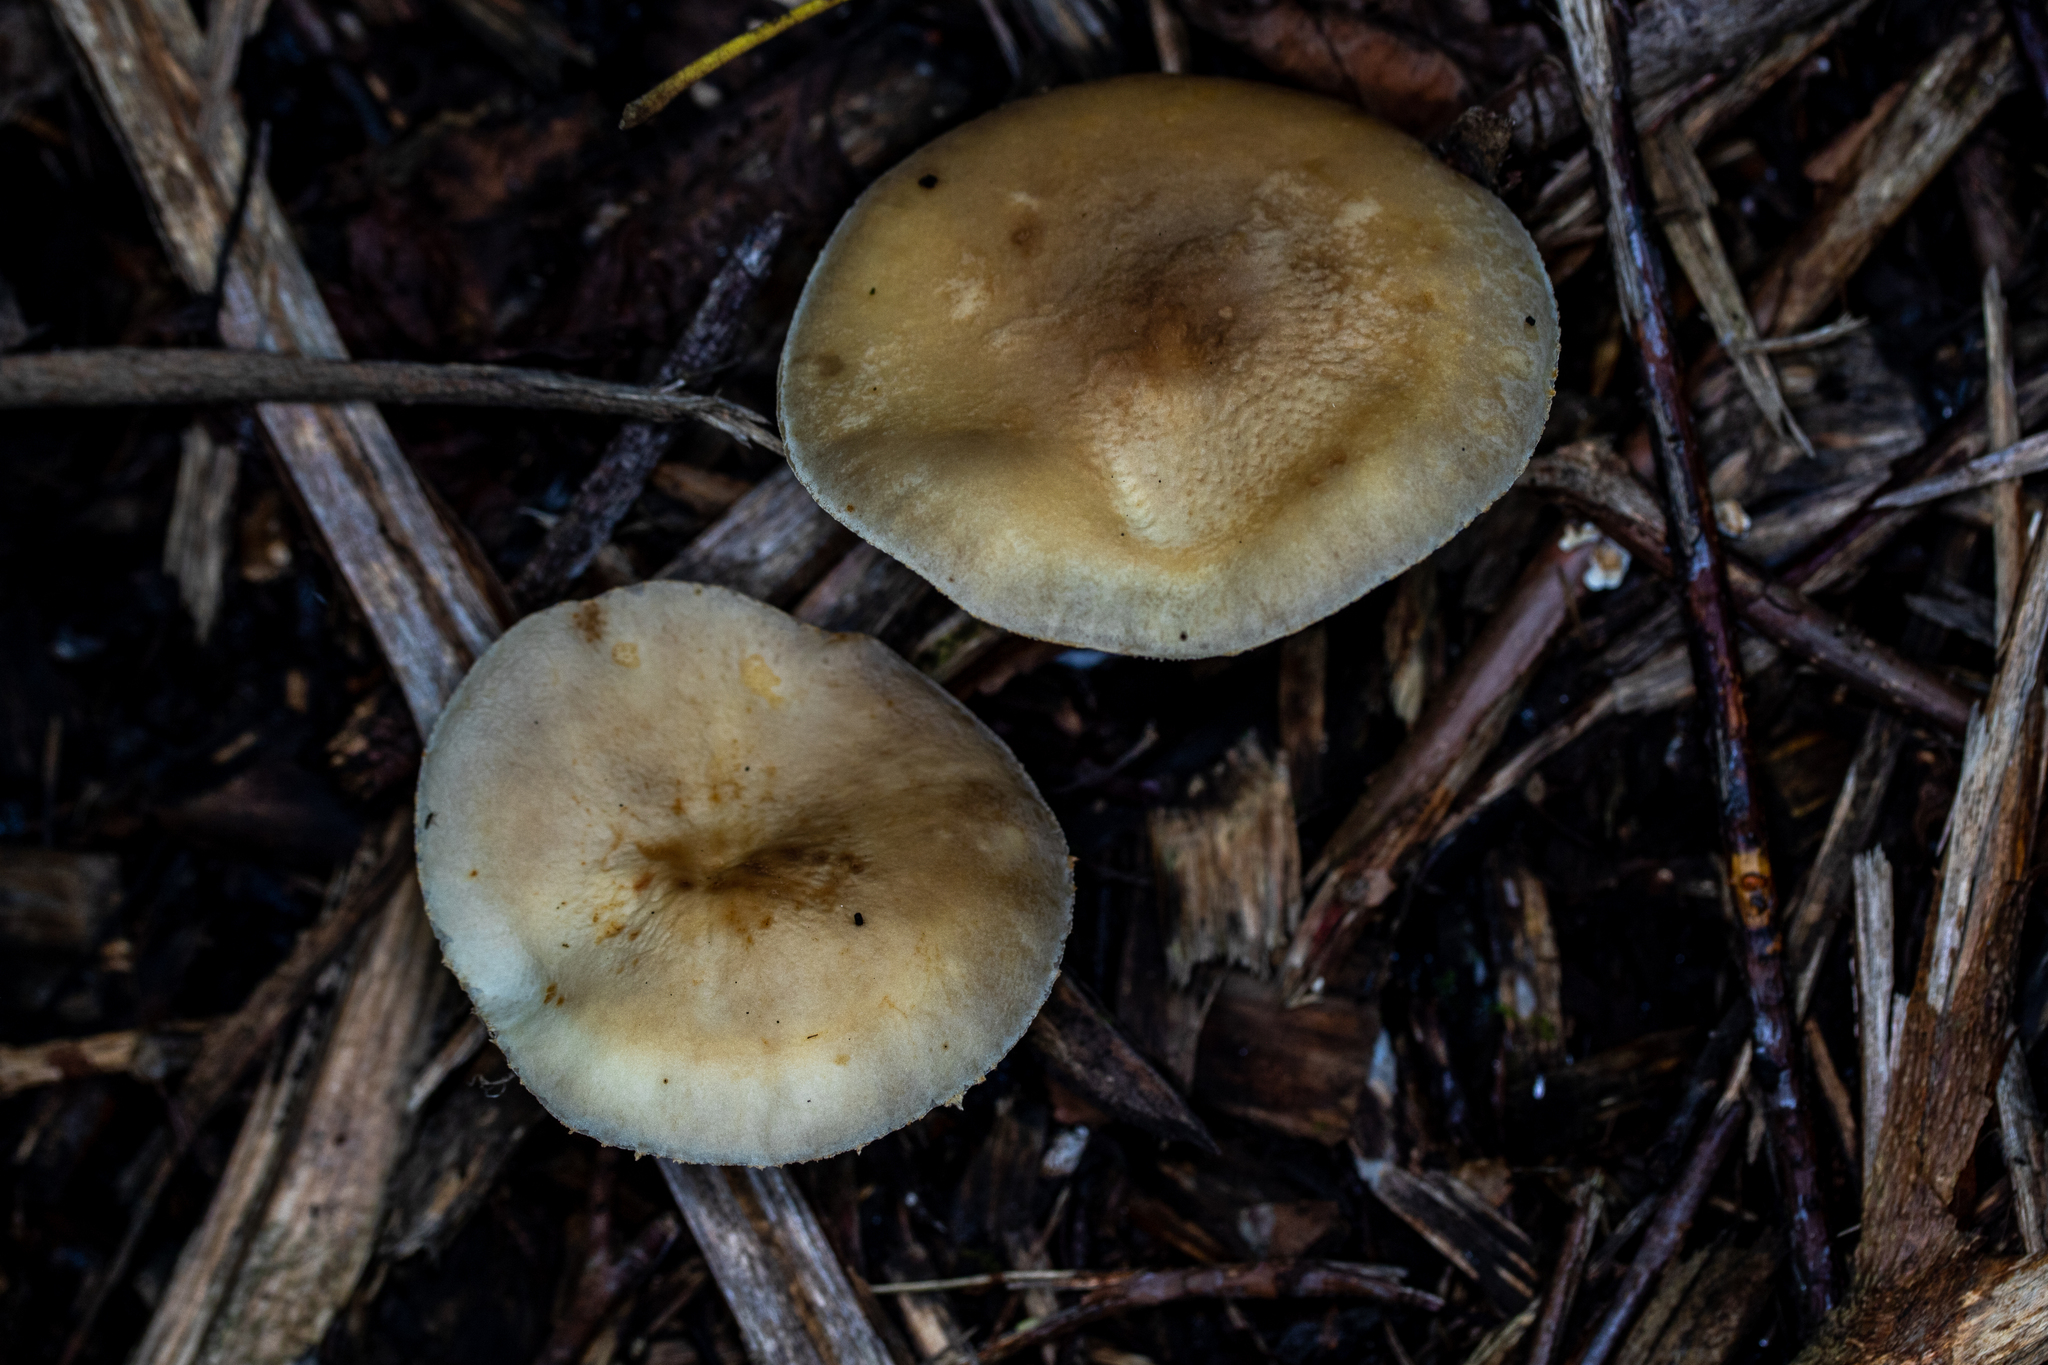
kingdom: Fungi
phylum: Basidiomycota
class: Agaricomycetes
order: Agaricales
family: Strophariaceae
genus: Stropharia
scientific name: Stropharia hardii
